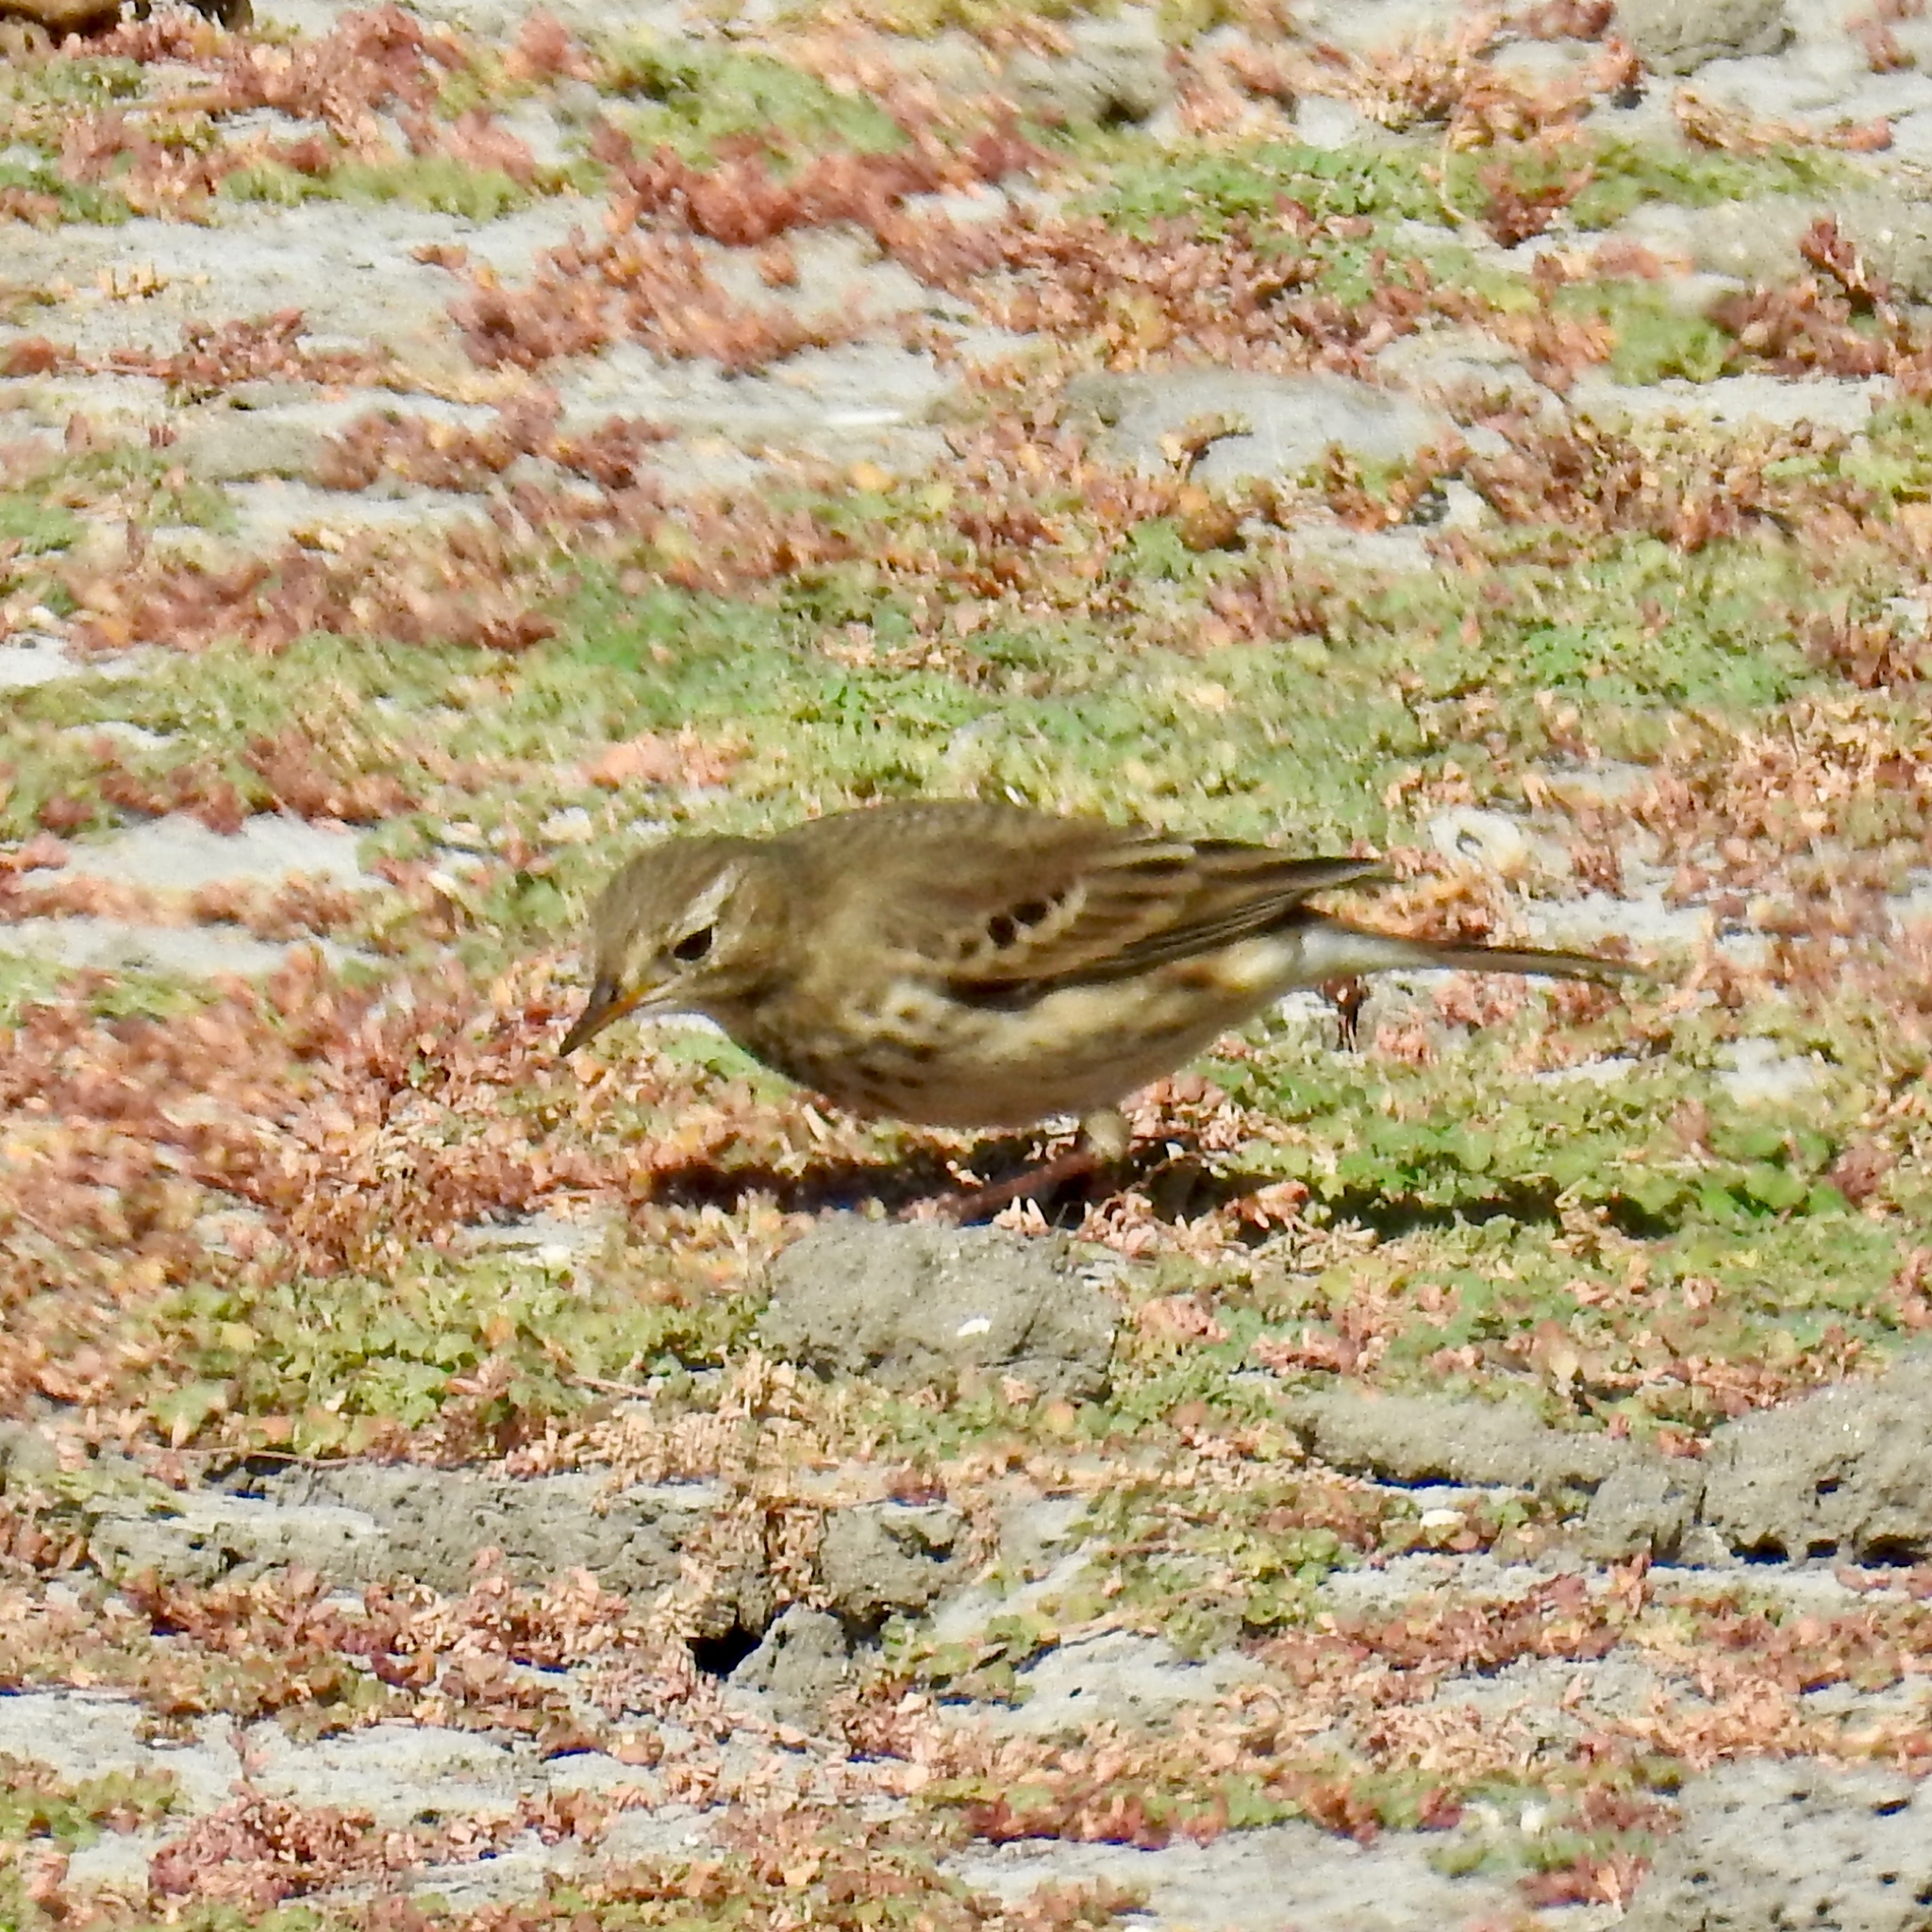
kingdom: Animalia
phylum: Chordata
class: Aves
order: Passeriformes
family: Motacillidae
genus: Anthus
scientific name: Anthus rubescens
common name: Buff-bellied pipit
